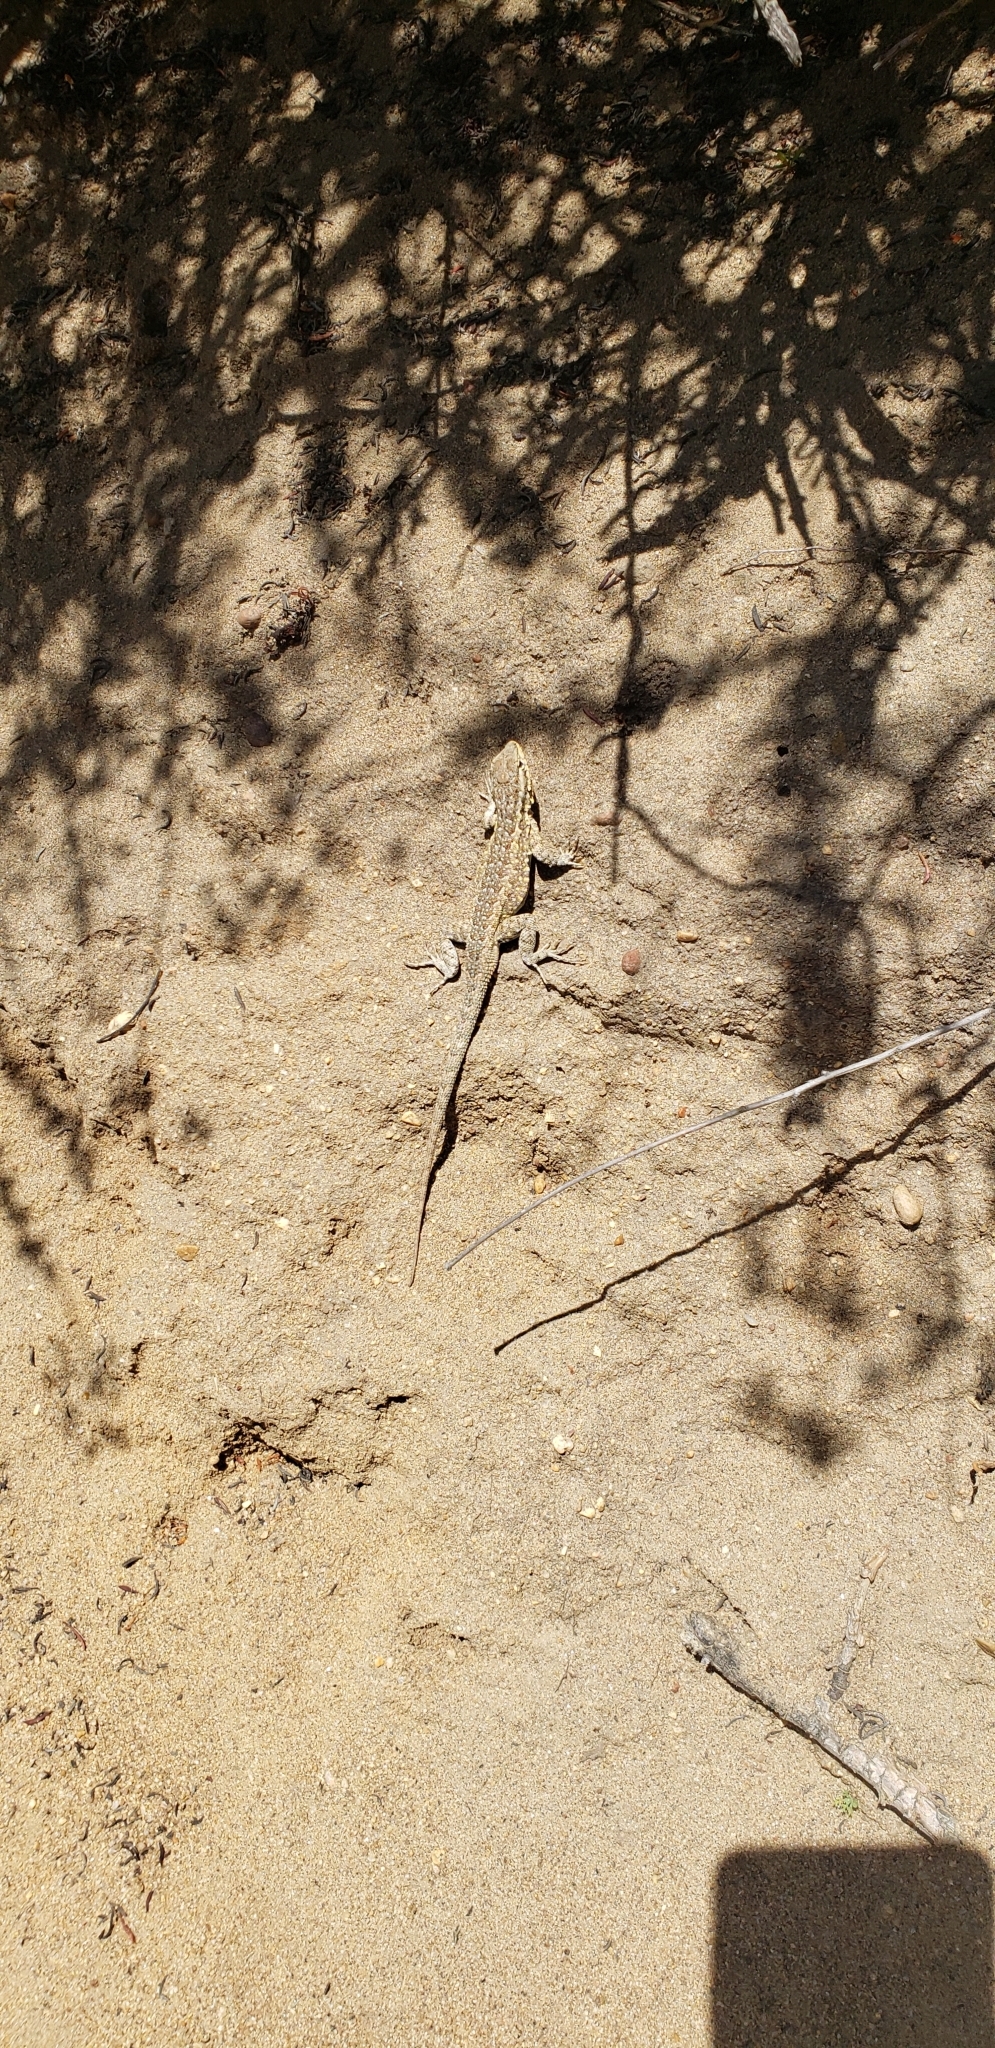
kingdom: Animalia
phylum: Chordata
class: Squamata
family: Phrynosomatidae
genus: Uta
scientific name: Uta stansburiana
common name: Side-blotched lizard
